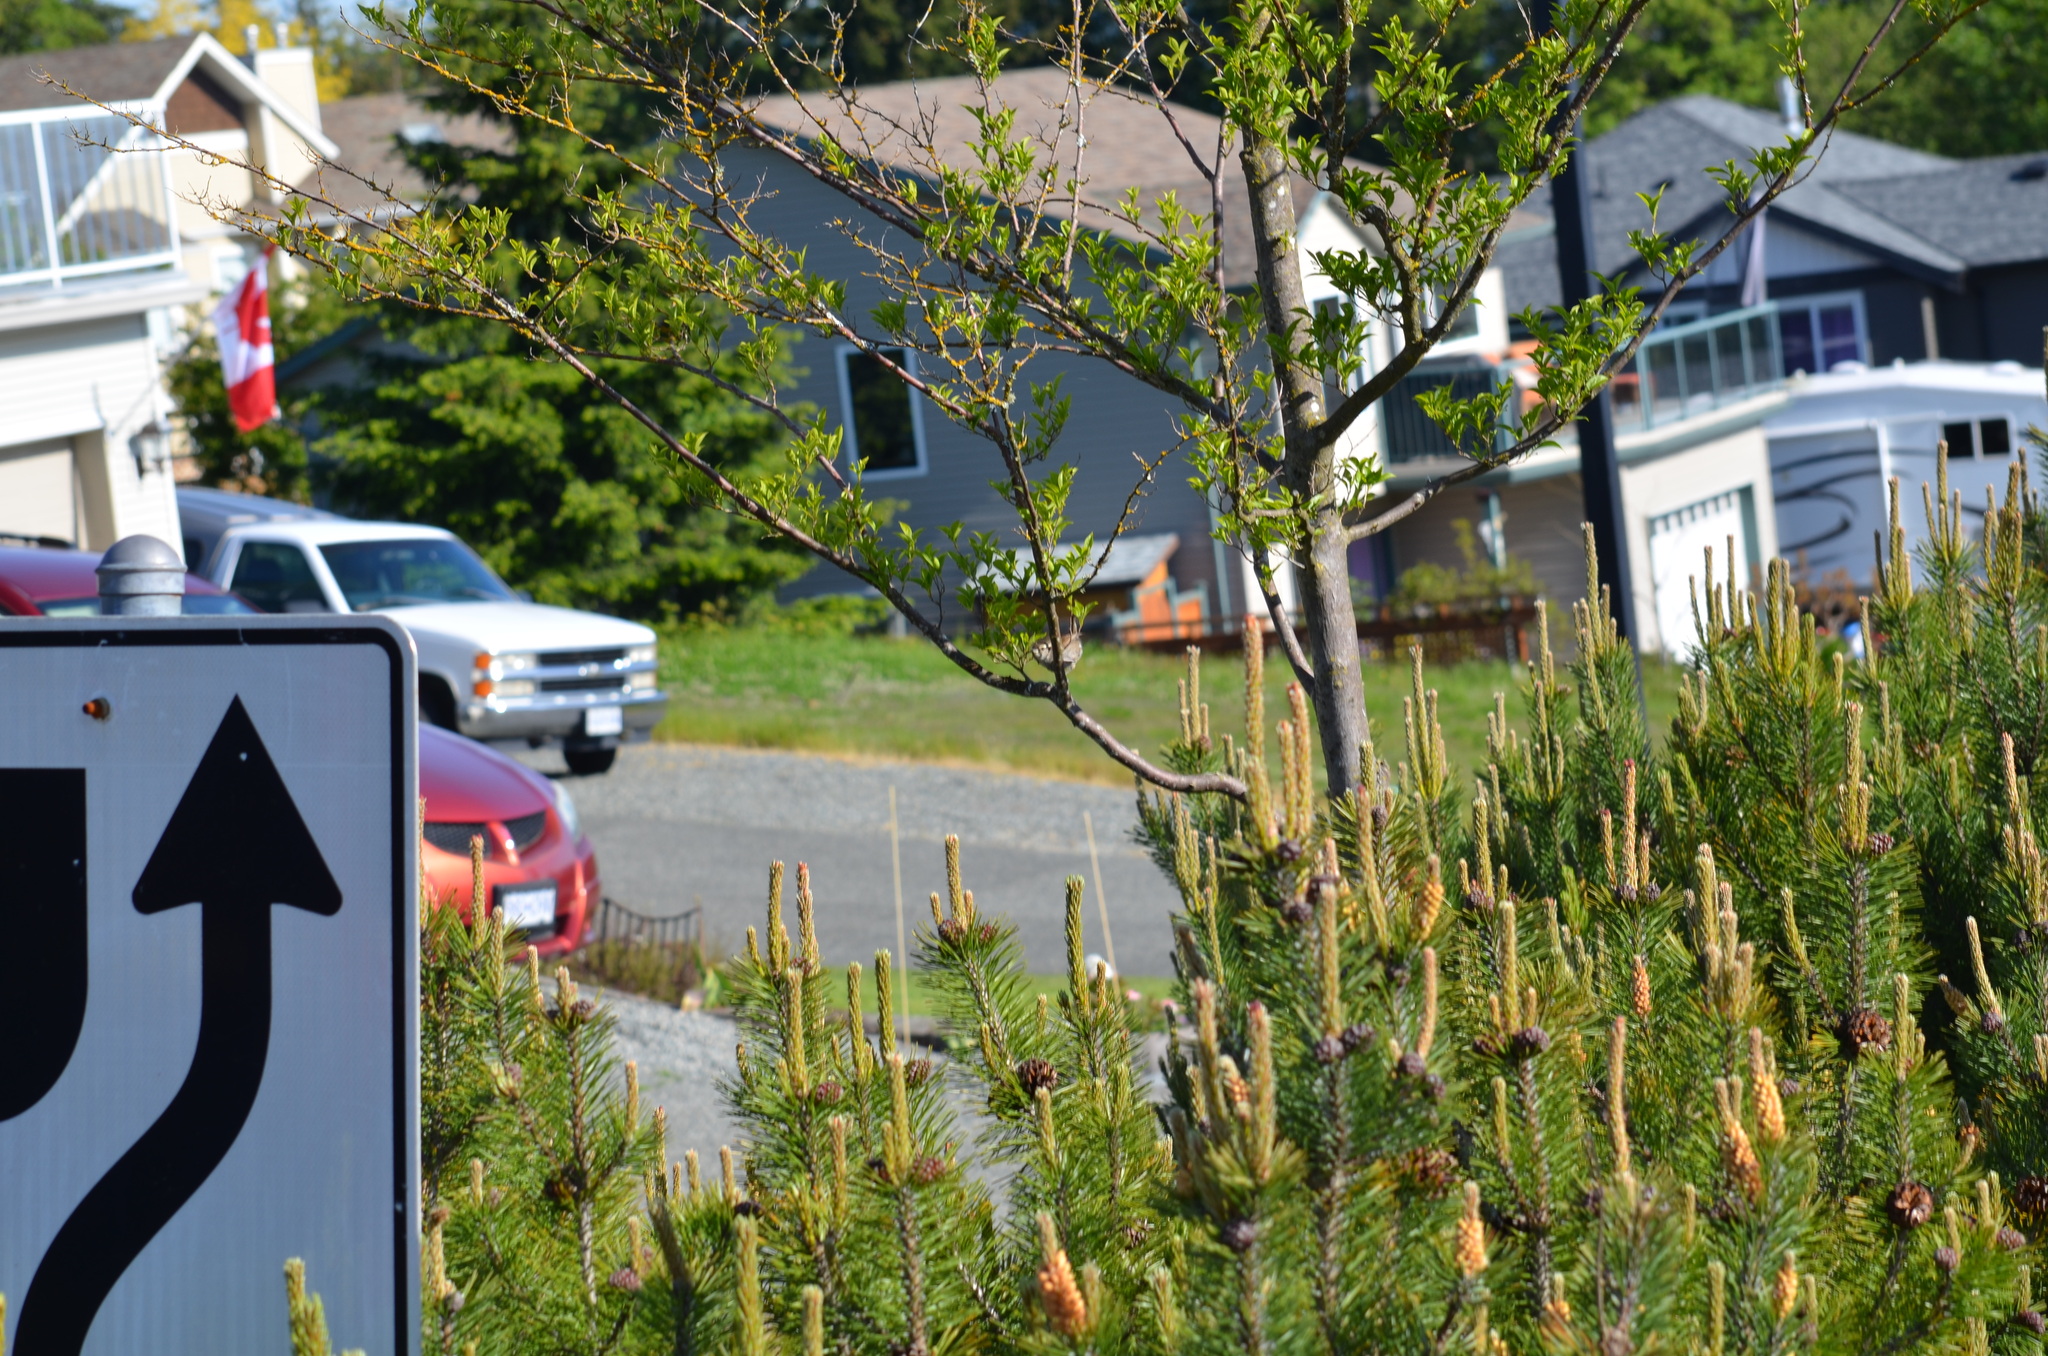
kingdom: Animalia
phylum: Chordata
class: Aves
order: Passeriformes
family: Troglodytidae
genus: Thryomanes
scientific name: Thryomanes bewickii
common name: Bewick's wren
